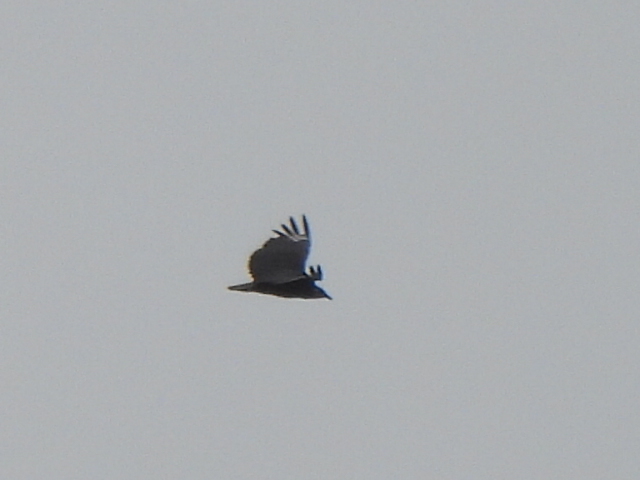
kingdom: Animalia
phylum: Chordata
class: Aves
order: Accipitriformes
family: Cathartidae
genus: Coragyps
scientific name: Coragyps atratus
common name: Black vulture
